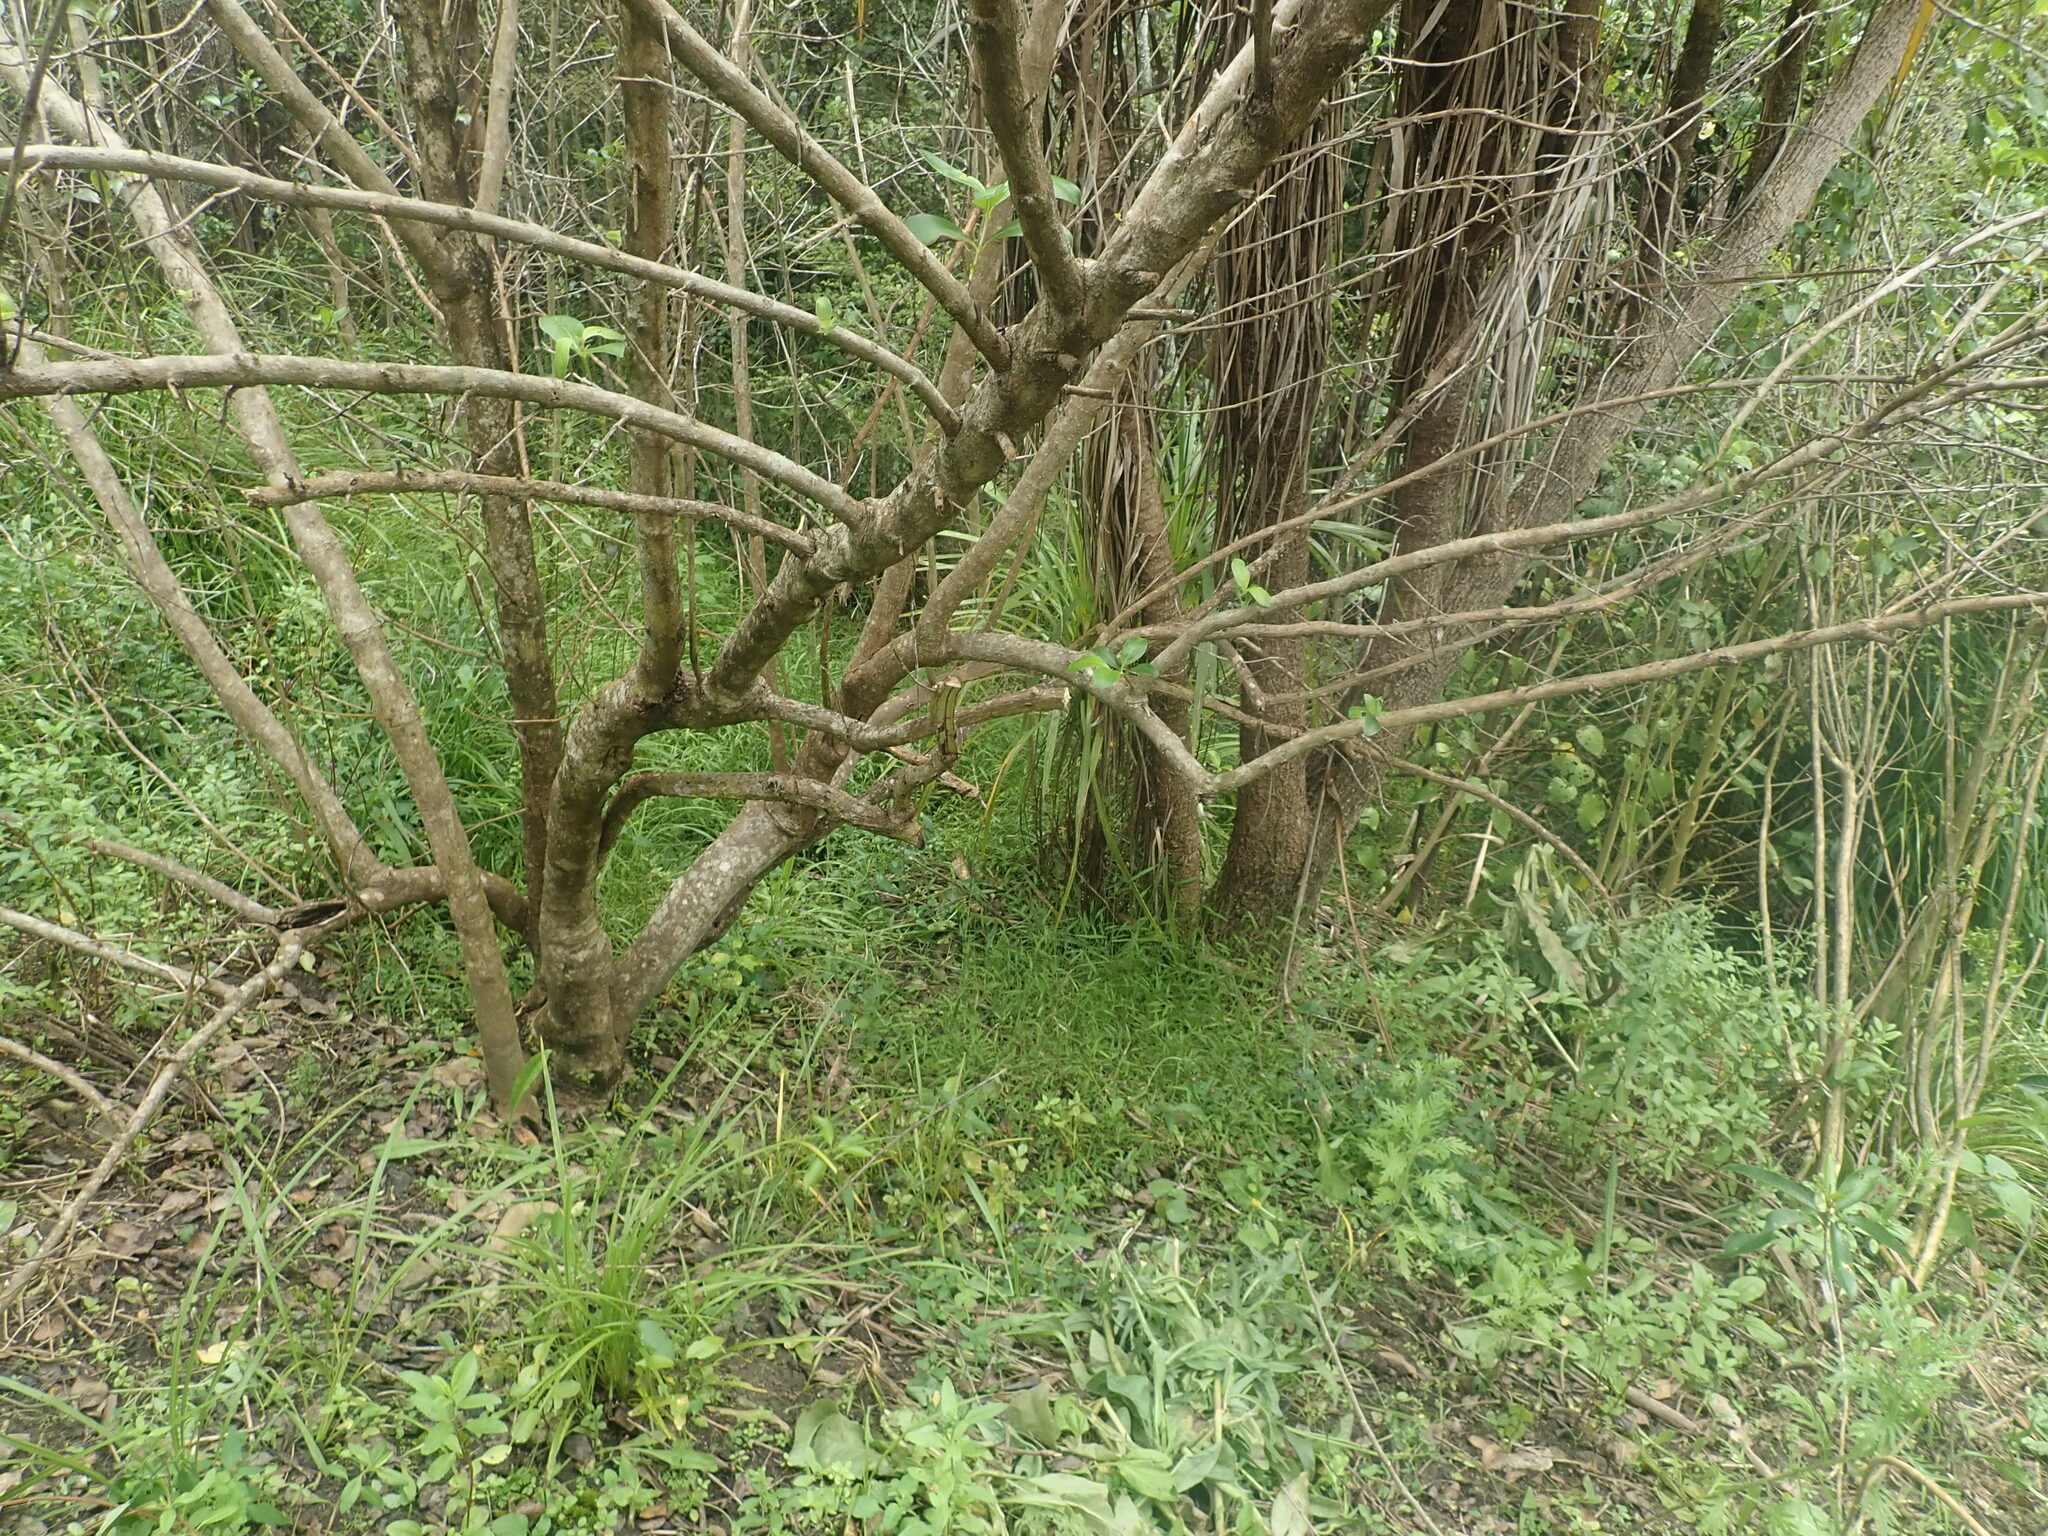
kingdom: Plantae
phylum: Tracheophyta
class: Liliopsida
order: Asparagales
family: Asparagaceae
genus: Cordyline
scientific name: Cordyline australis
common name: Cabbage-palm
